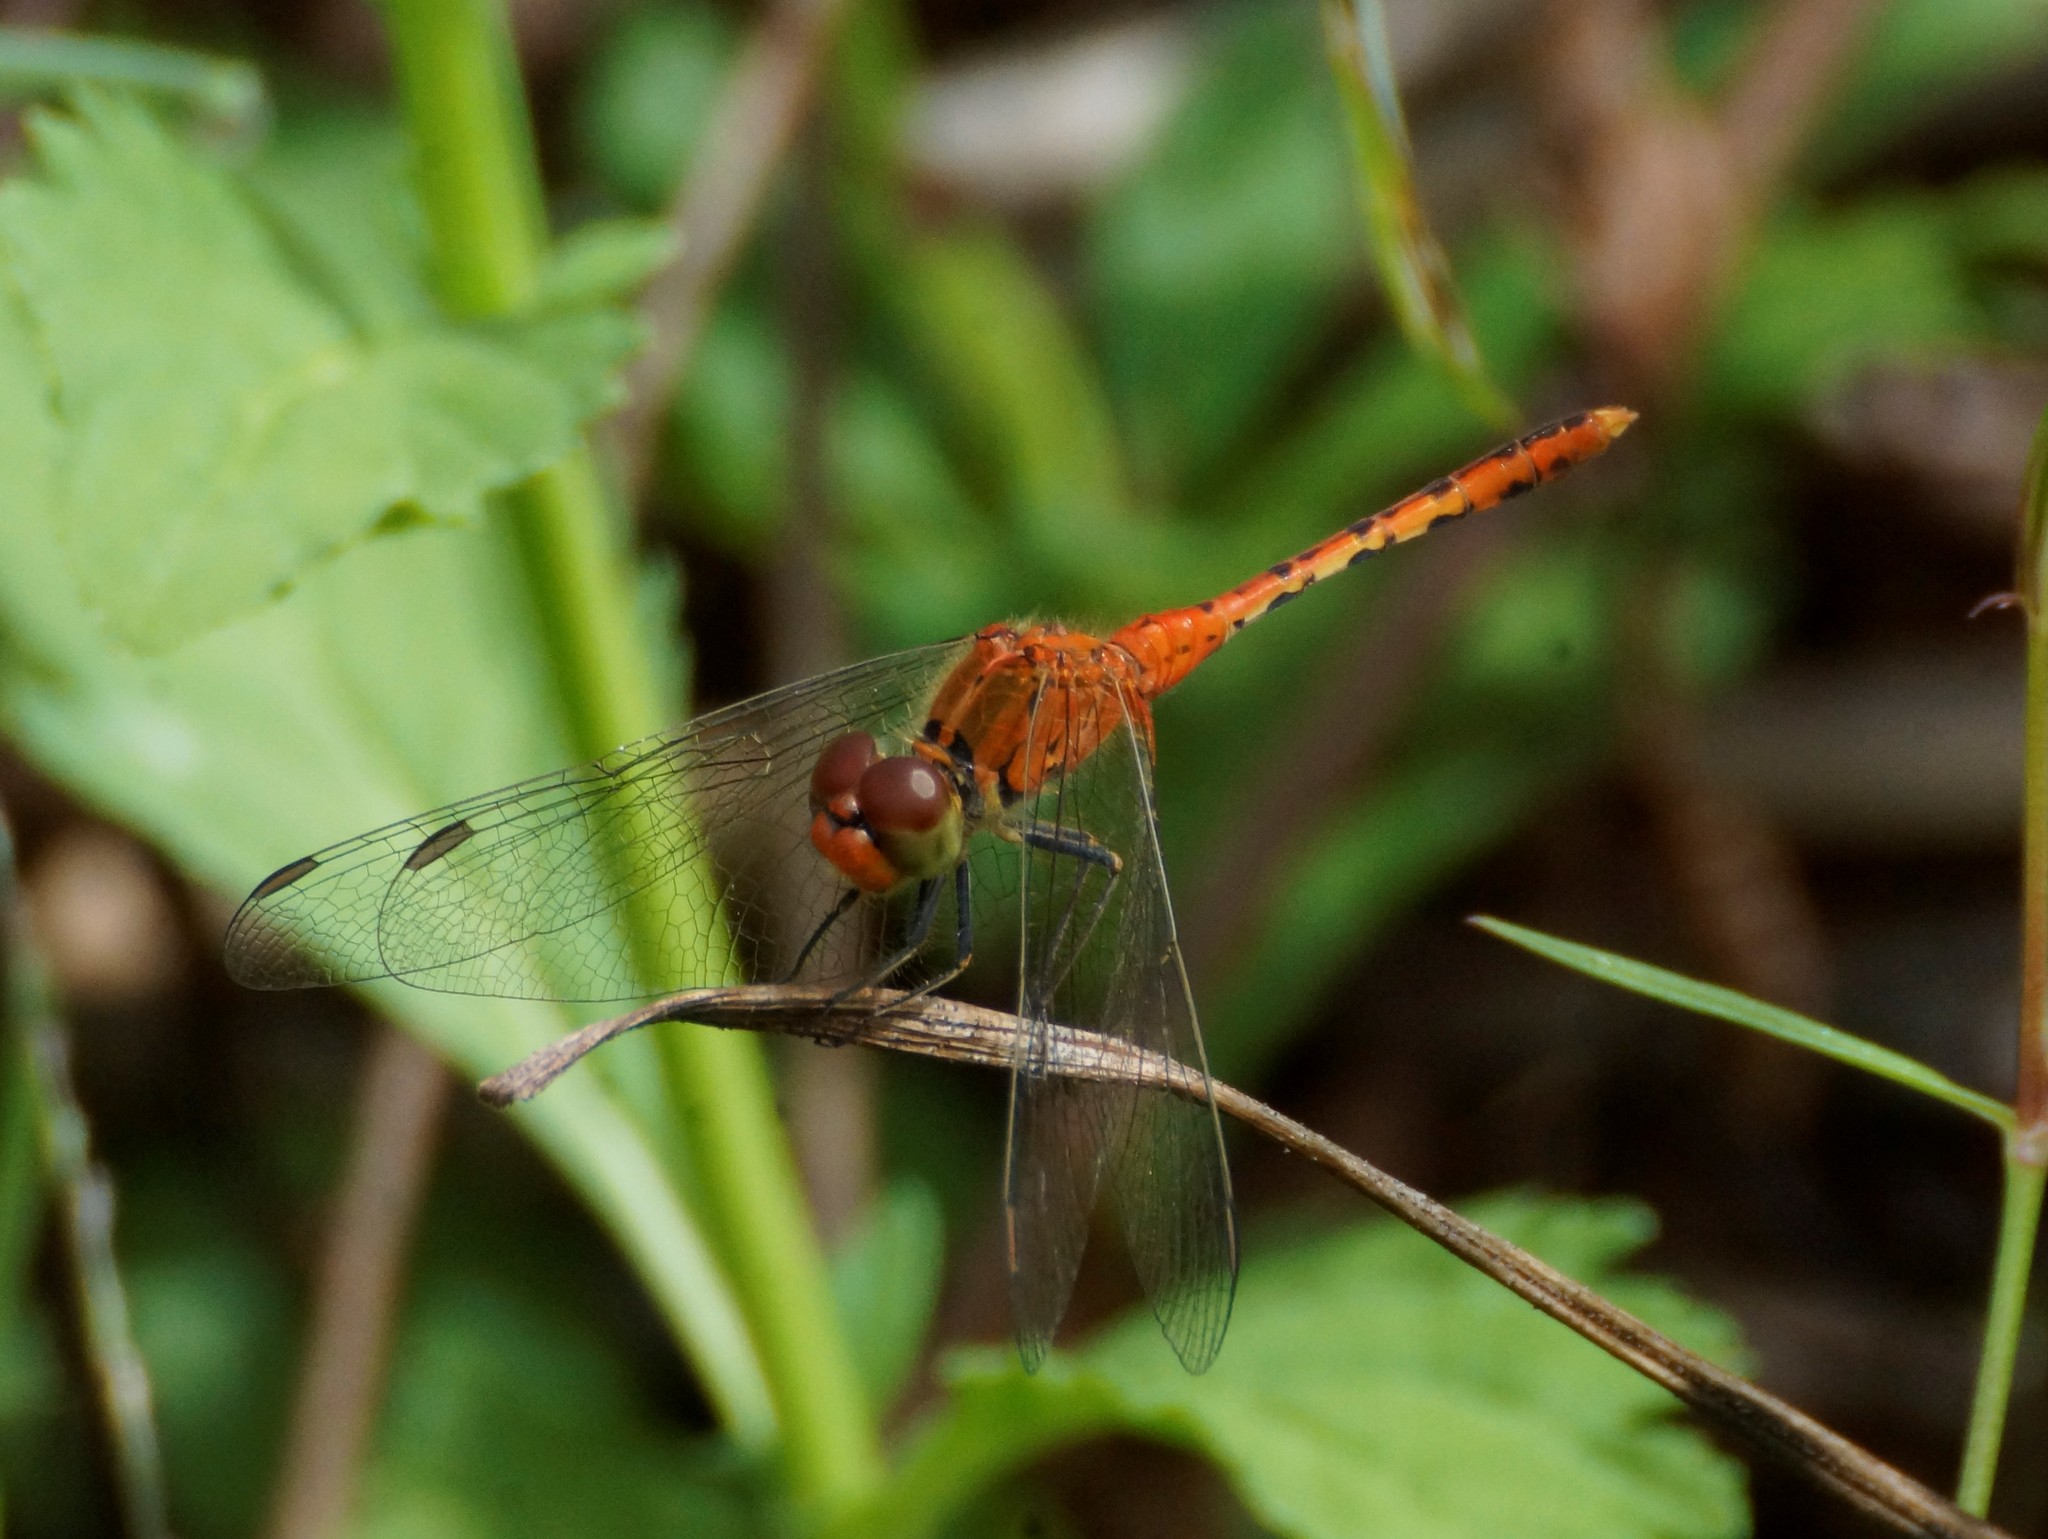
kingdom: Animalia
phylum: Arthropoda
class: Insecta
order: Odonata
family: Libellulidae
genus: Diplacodes
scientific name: Diplacodes bipunctata
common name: Red percher dragonfly
